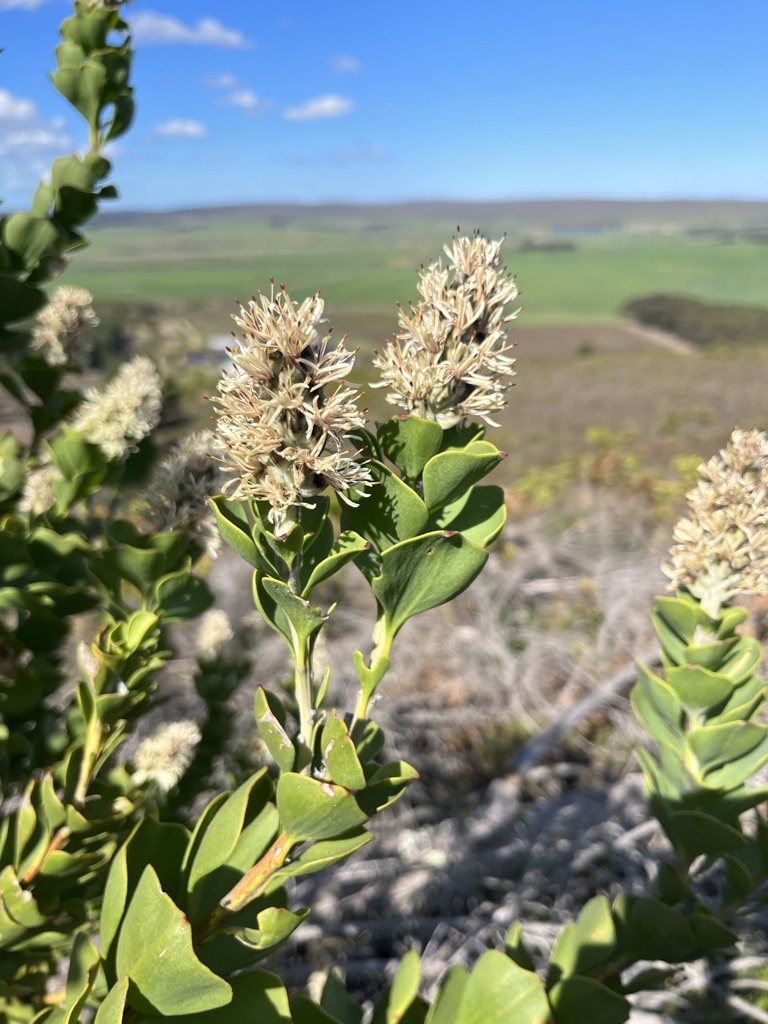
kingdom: Plantae
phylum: Tracheophyta
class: Magnoliopsida
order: Proteales
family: Proteaceae
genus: Paranomus
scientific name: Paranomus sceptrum-gustavianus
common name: King gustav's sceptre
